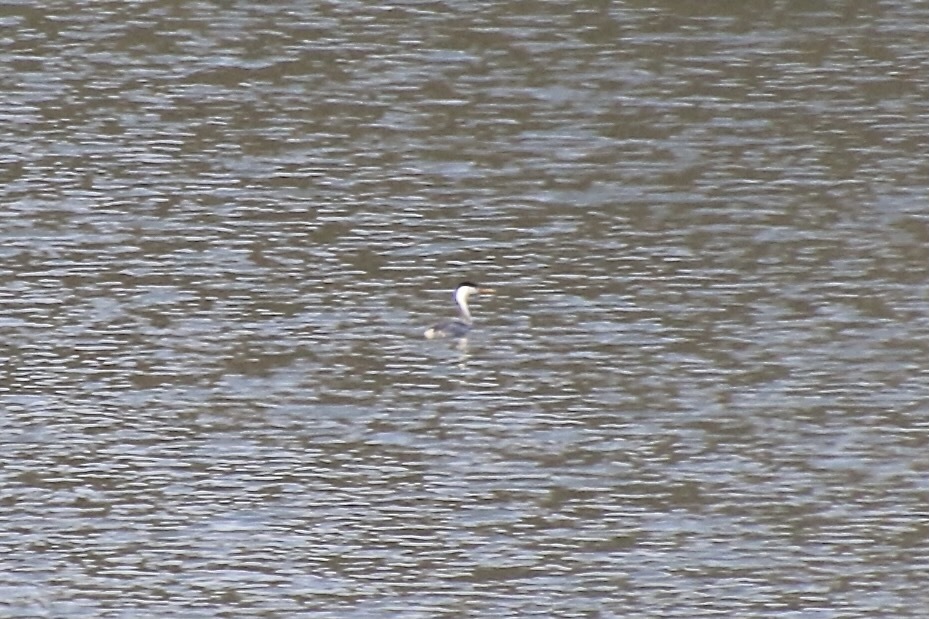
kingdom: Animalia
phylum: Chordata
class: Aves
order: Podicipediformes
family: Podicipedidae
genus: Aechmophorus
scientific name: Aechmophorus clarkii
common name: Clark's grebe
